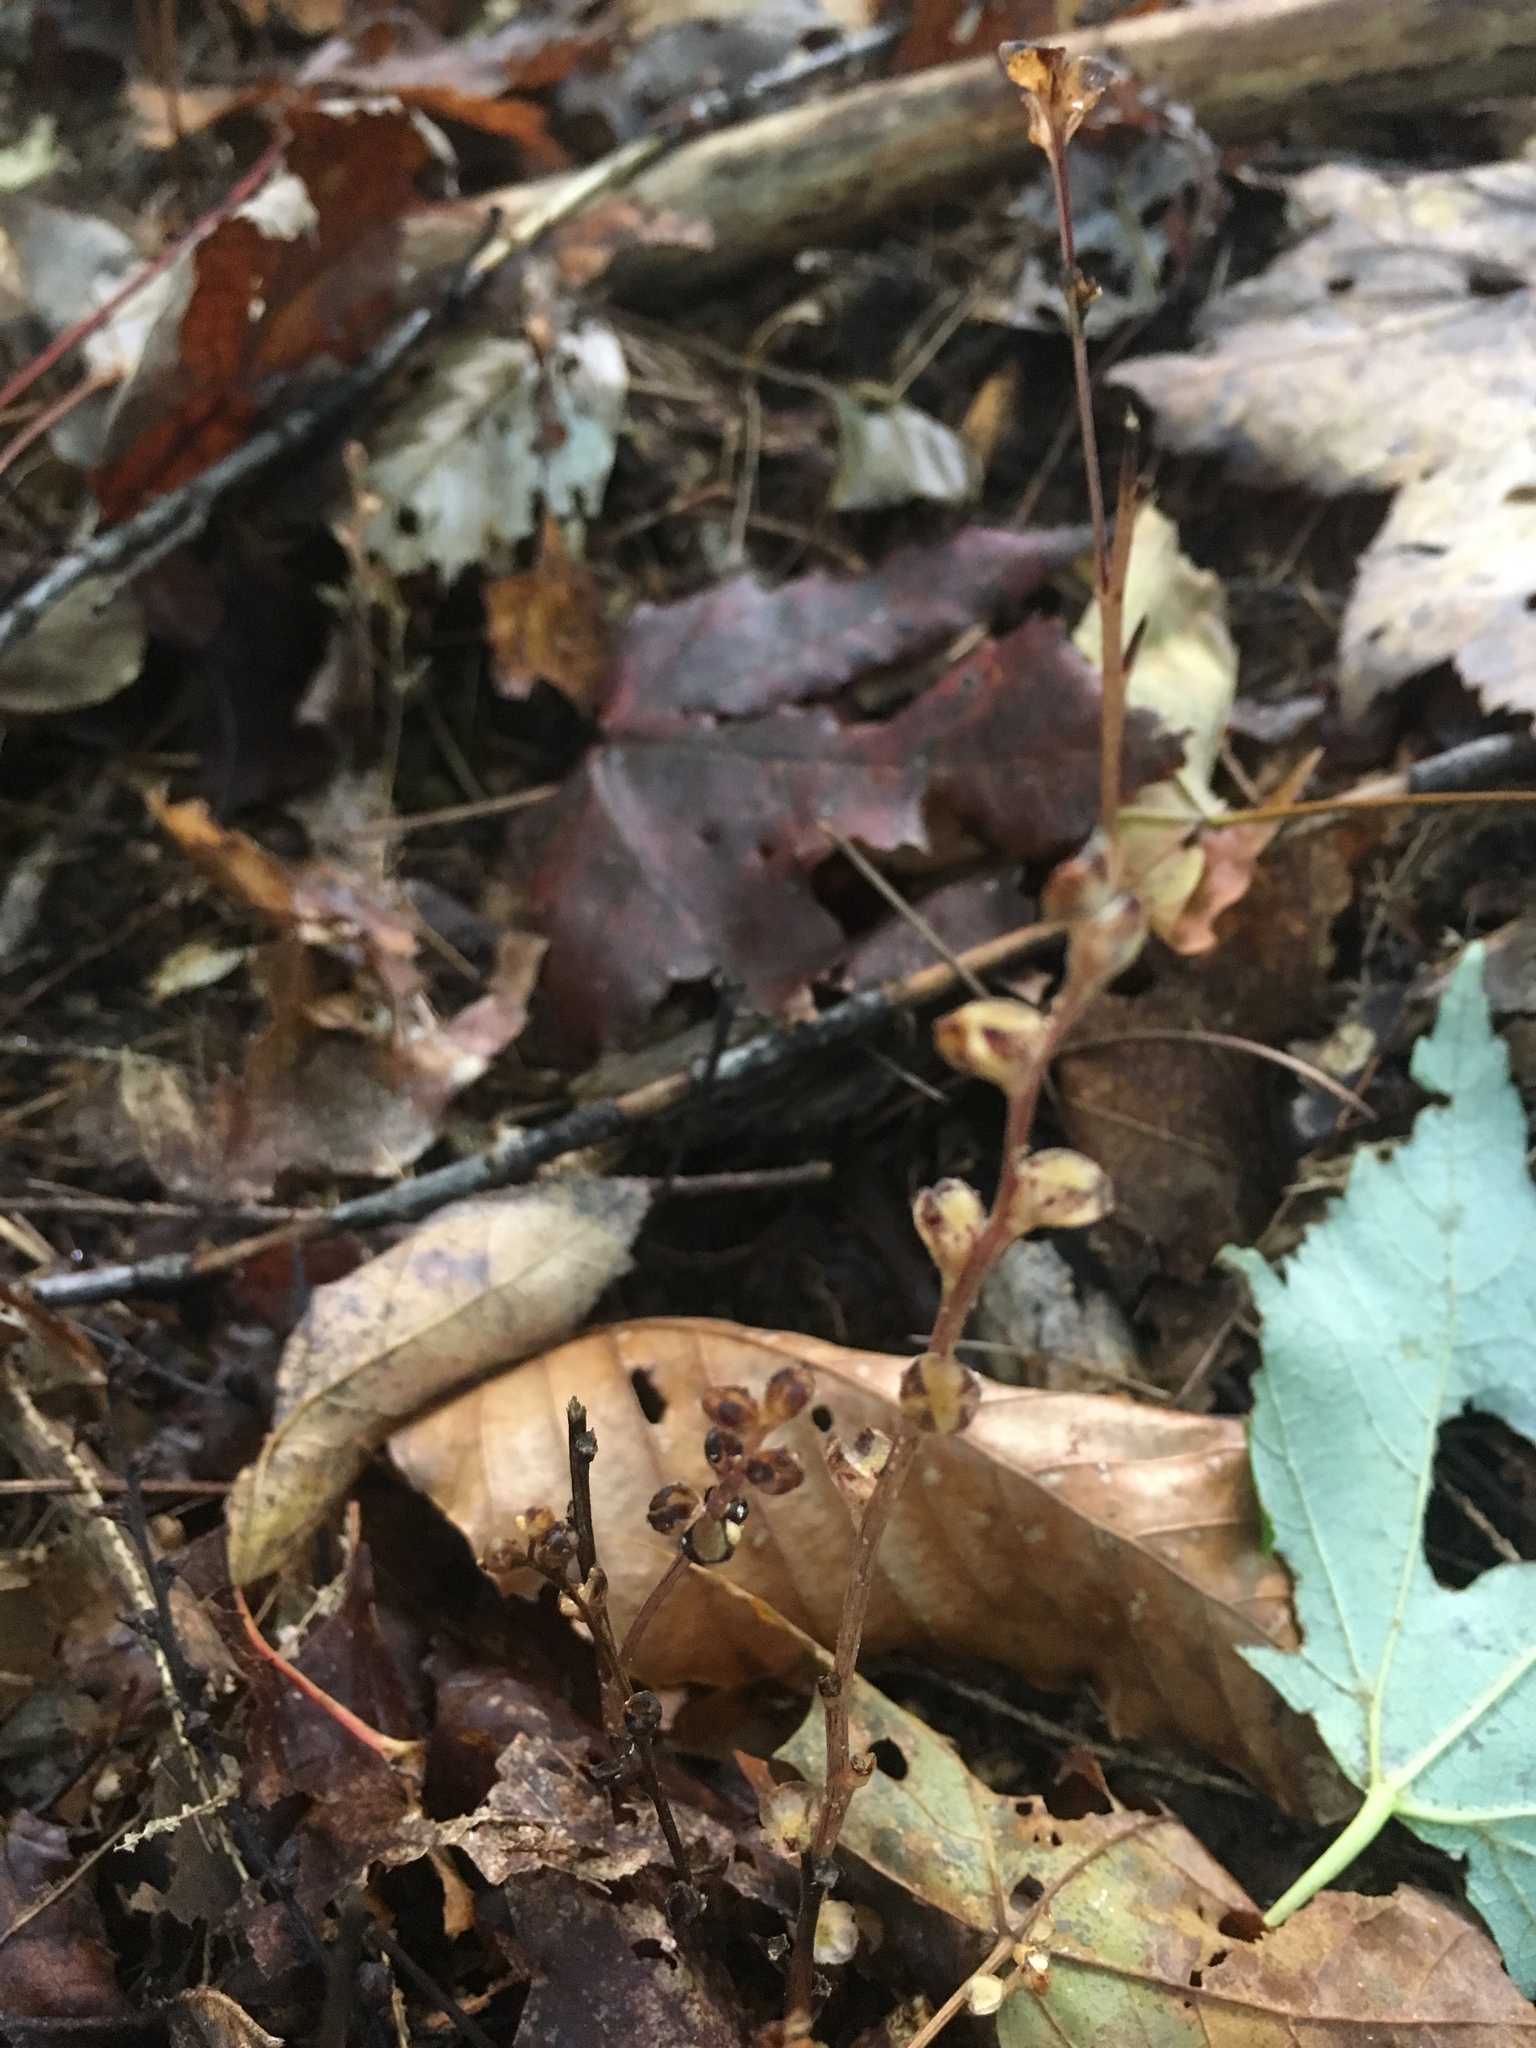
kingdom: Plantae
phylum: Tracheophyta
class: Magnoliopsida
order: Lamiales
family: Orobanchaceae
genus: Epifagus
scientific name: Epifagus virginiana
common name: Beechdrops
